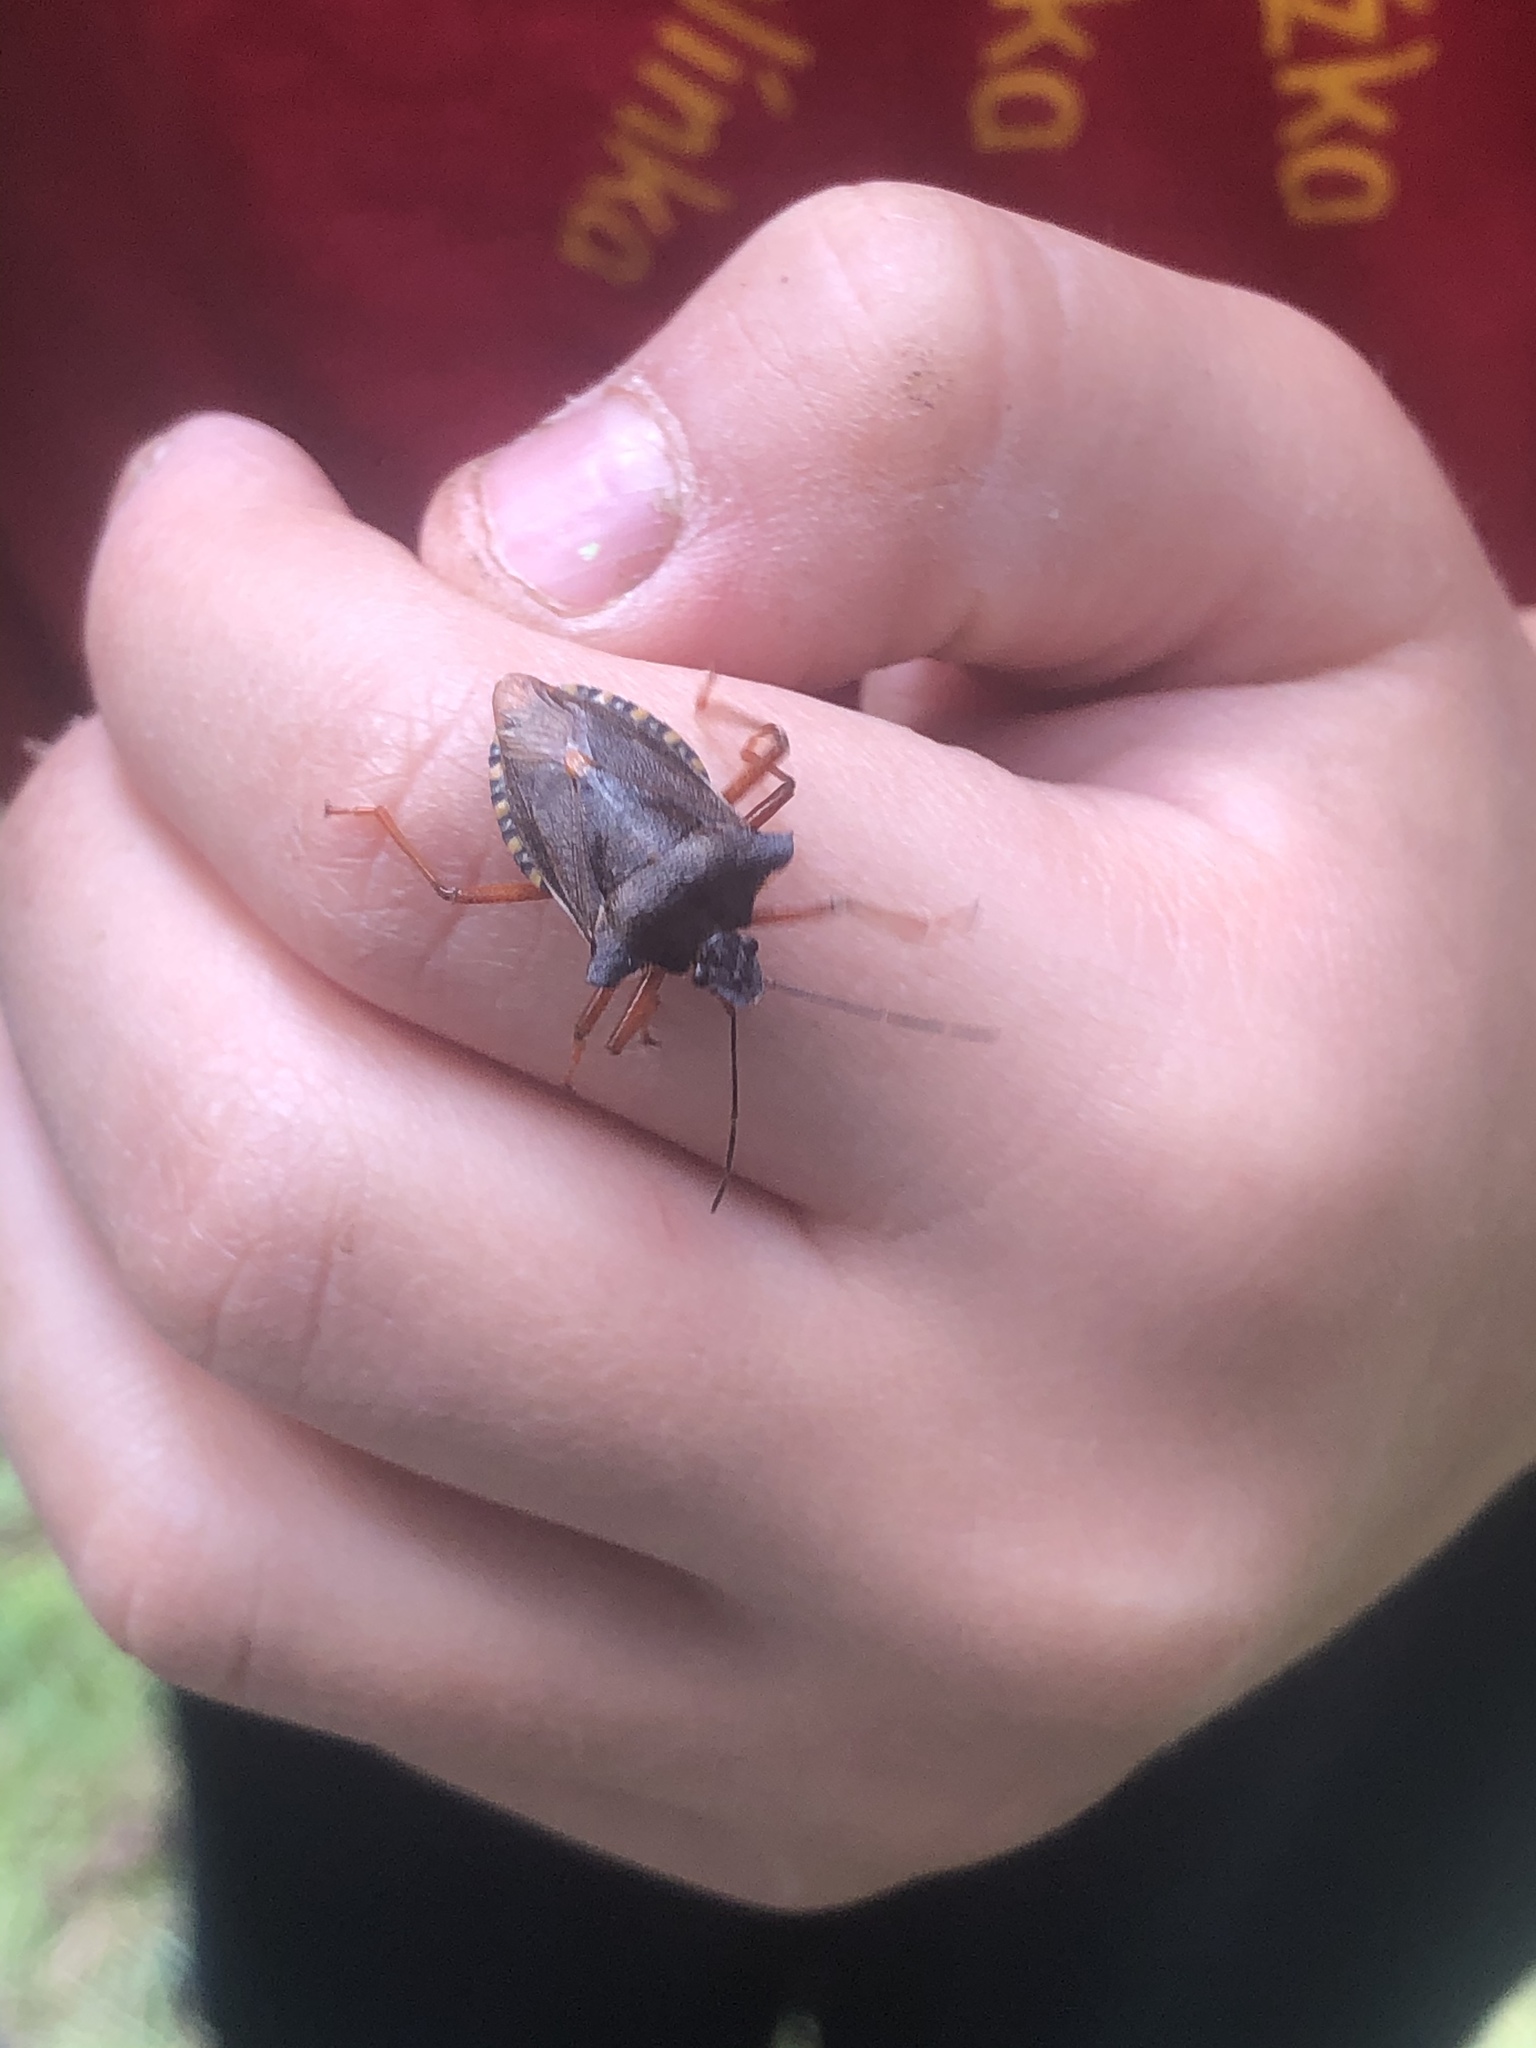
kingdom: Animalia
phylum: Arthropoda
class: Insecta
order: Hemiptera
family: Pentatomidae
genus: Pentatoma
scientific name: Pentatoma rufipes
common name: Forest bug
